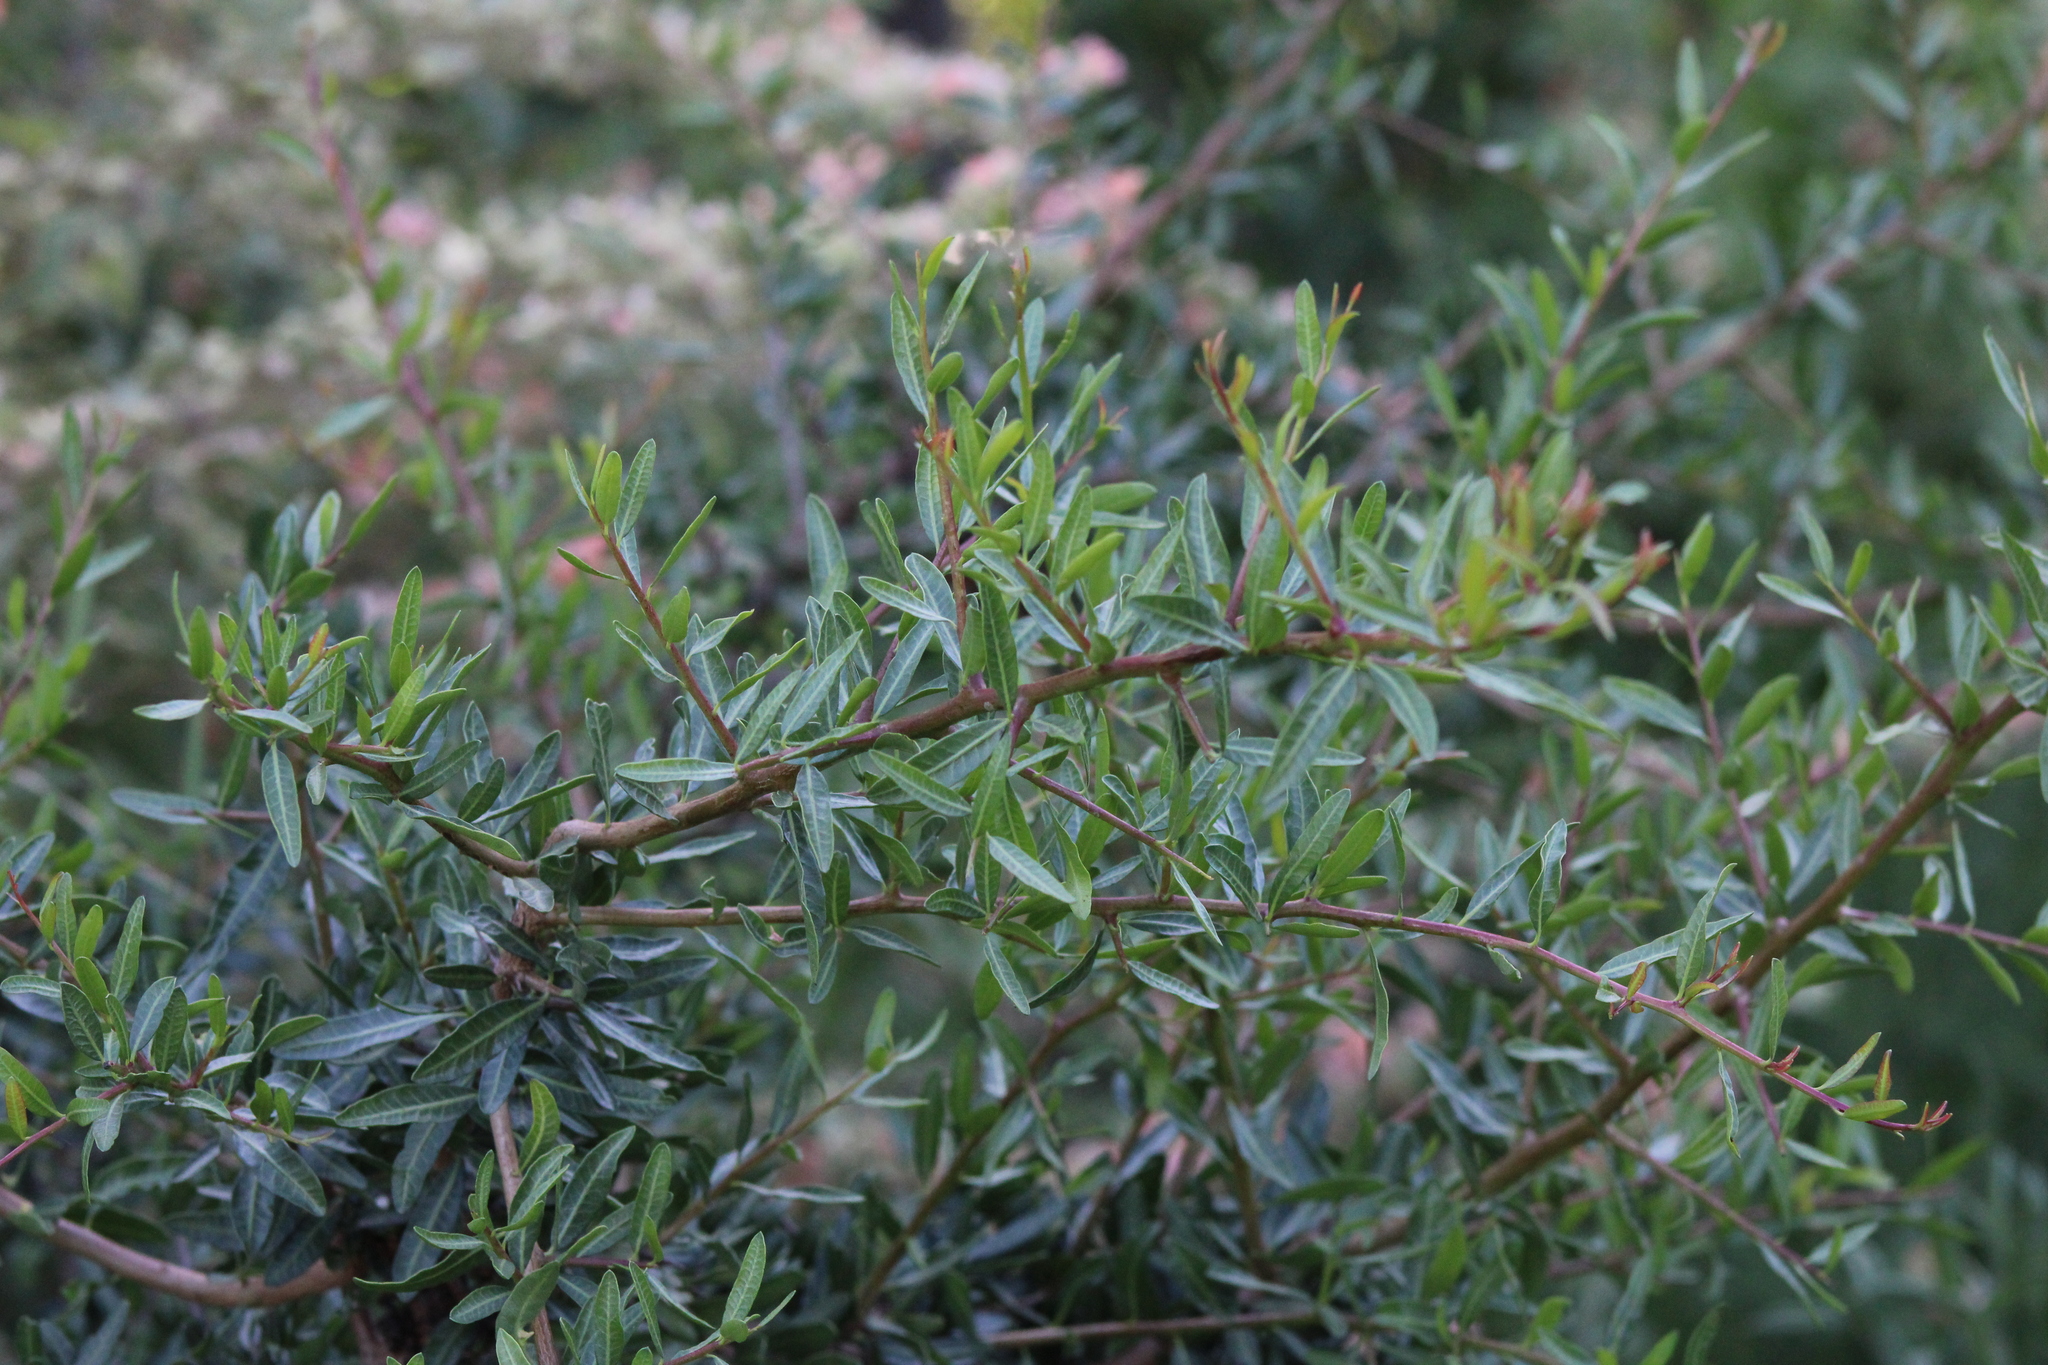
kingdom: Plantae
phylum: Tracheophyta
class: Magnoliopsida
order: Sapindales
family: Anacardiaceae
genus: Schinus
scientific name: Schinus longifolia
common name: Longleaf peppertree
